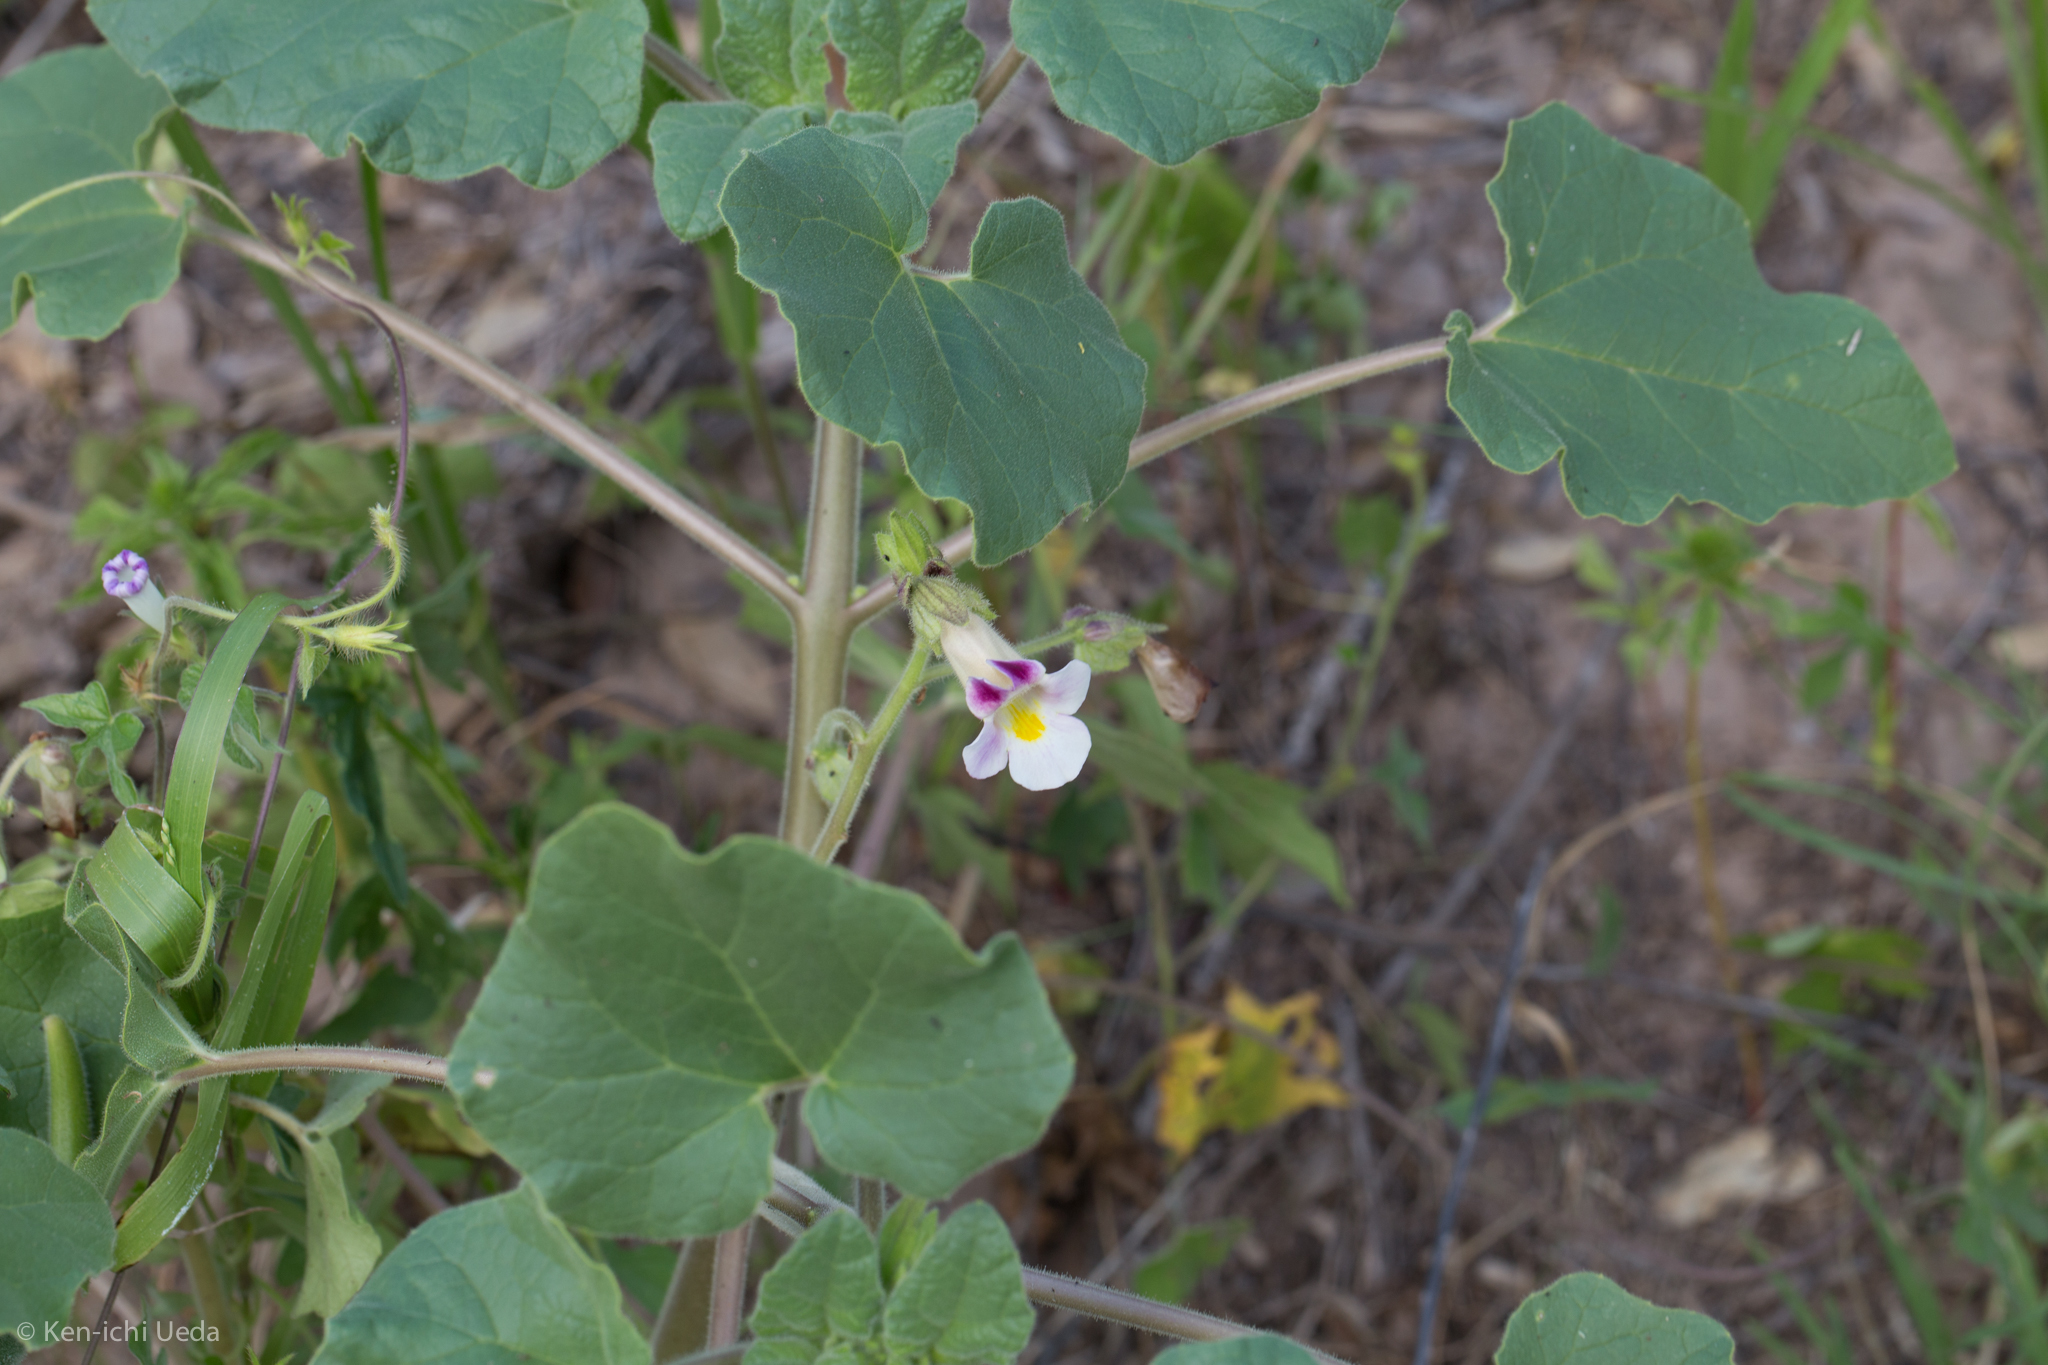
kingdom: Plantae
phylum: Tracheophyta
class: Magnoliopsida
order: Lamiales
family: Martyniaceae
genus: Proboscidea
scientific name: Proboscidea parviflora
